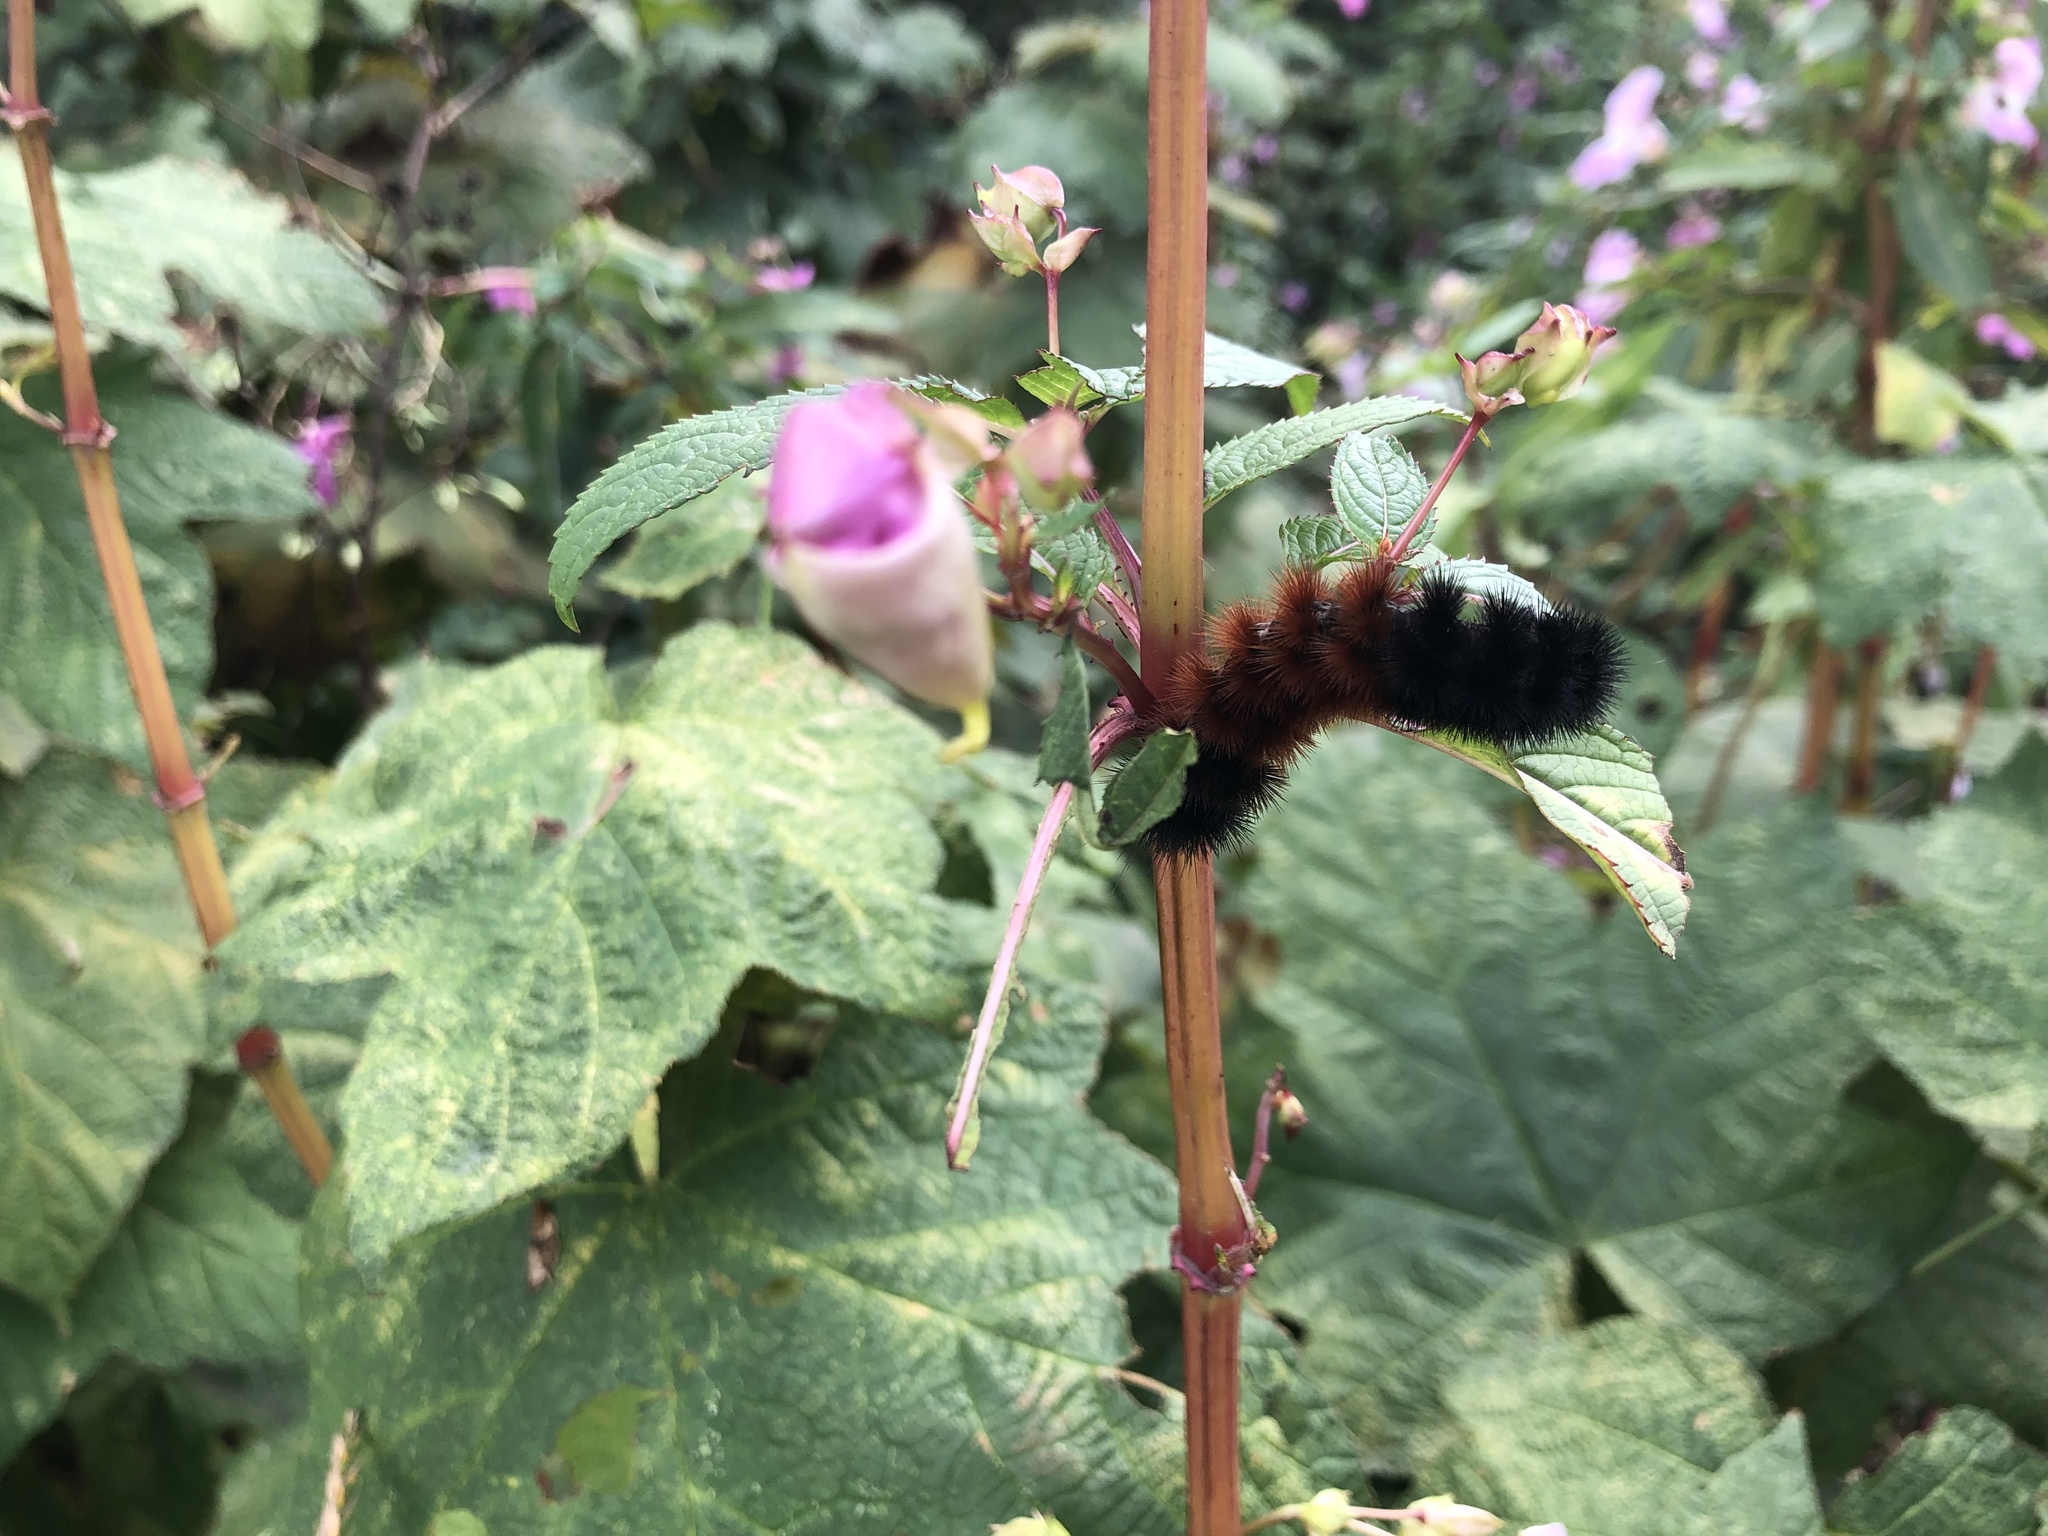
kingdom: Animalia
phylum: Arthropoda
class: Insecta
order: Lepidoptera
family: Erebidae
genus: Pyrrharctia
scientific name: Pyrrharctia isabella
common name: Isabella tiger moth
